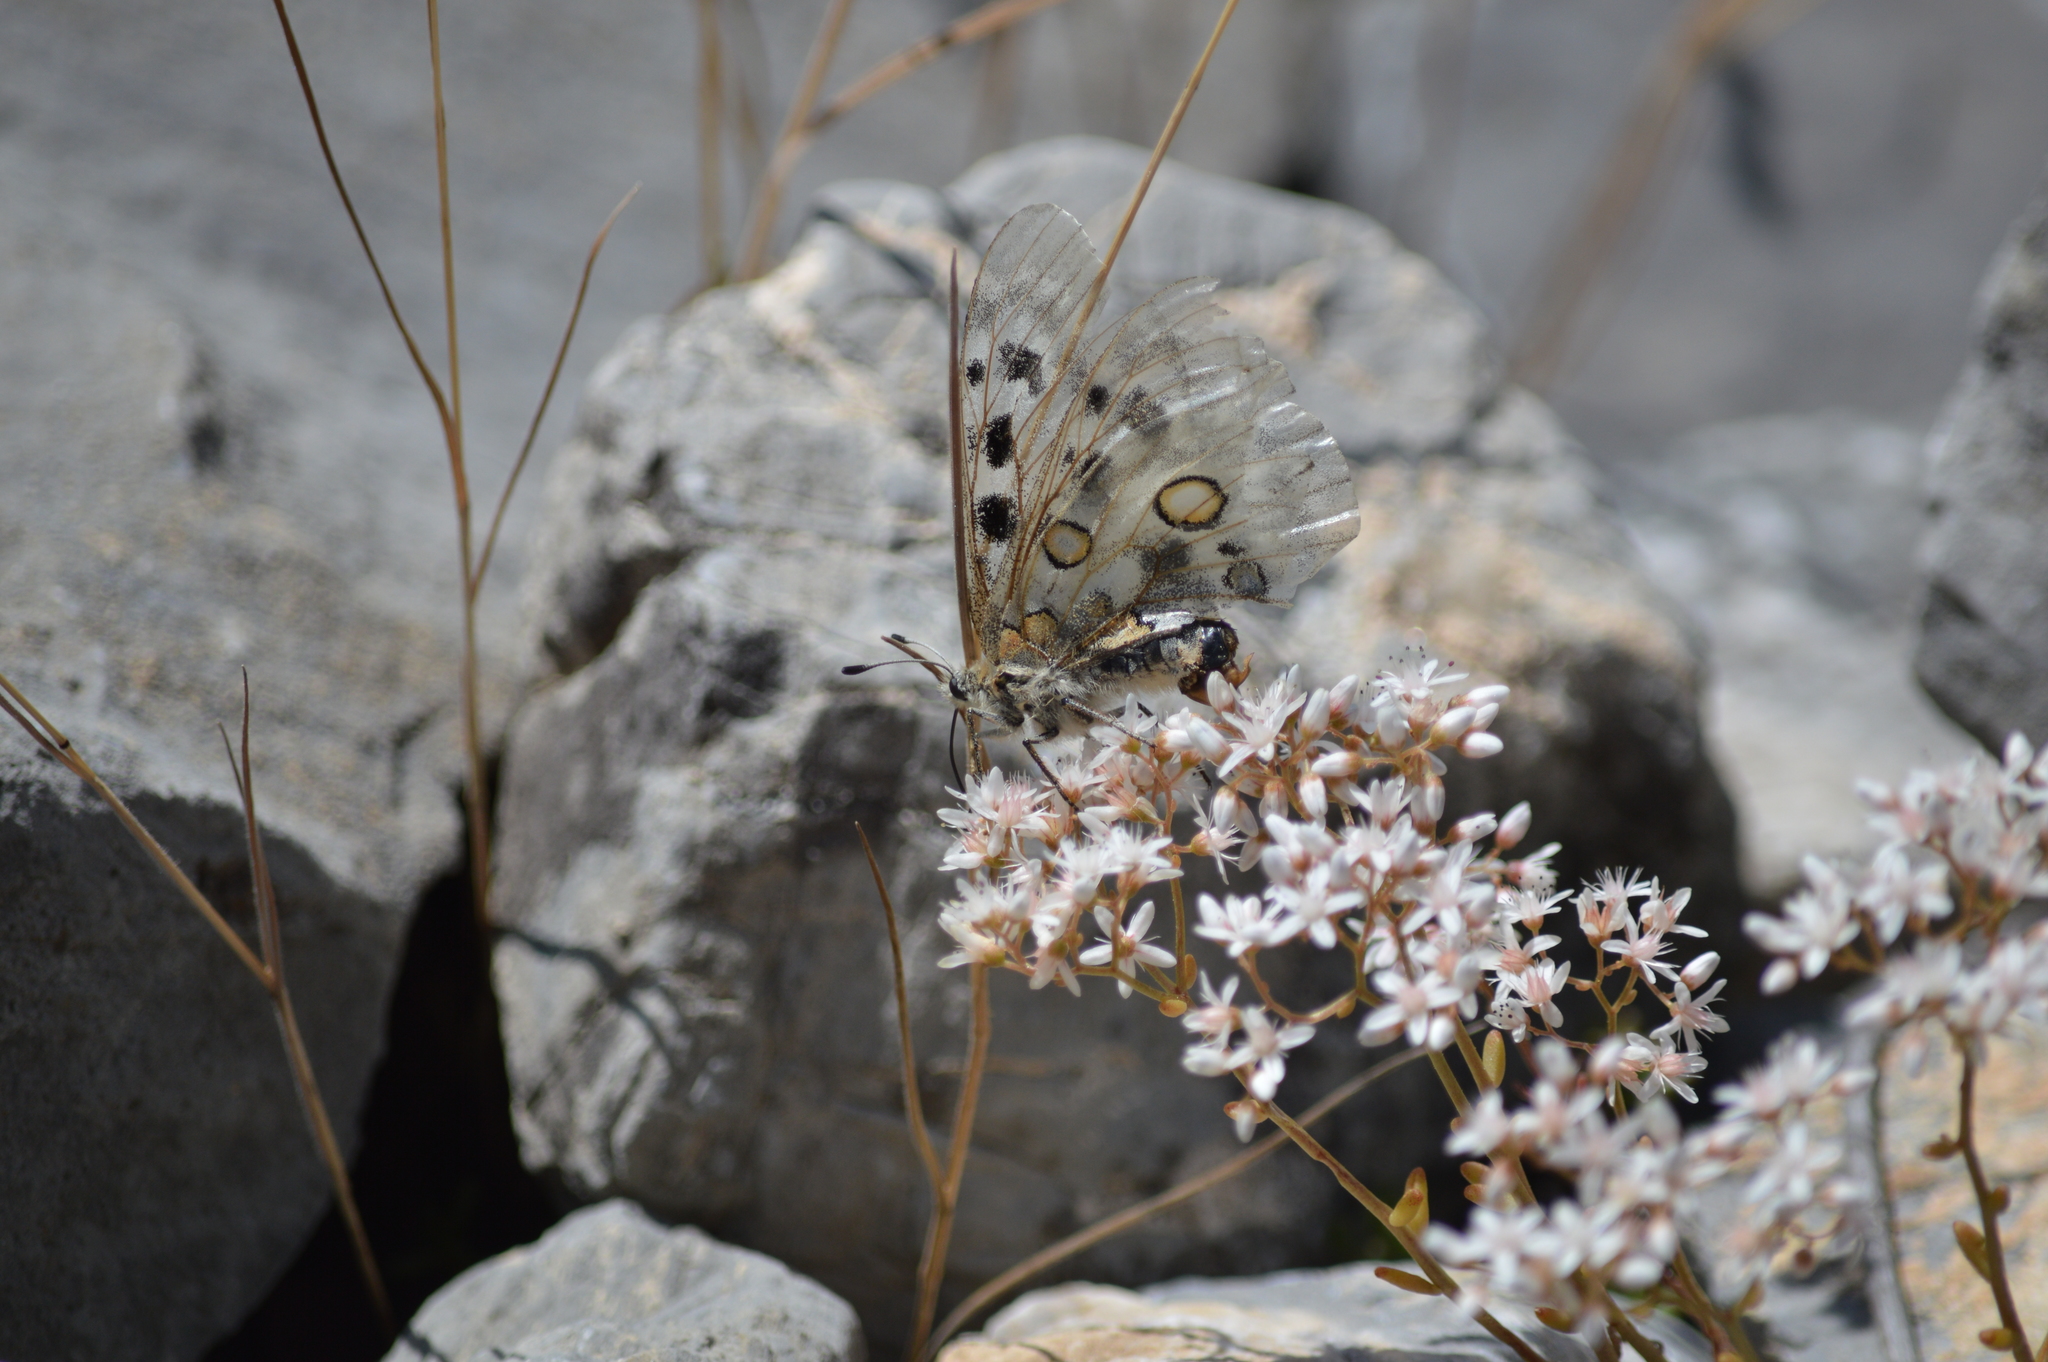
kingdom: Animalia
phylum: Arthropoda
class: Insecta
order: Lepidoptera
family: Papilionidae
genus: Parnassius
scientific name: Parnassius apollo
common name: Apollo
